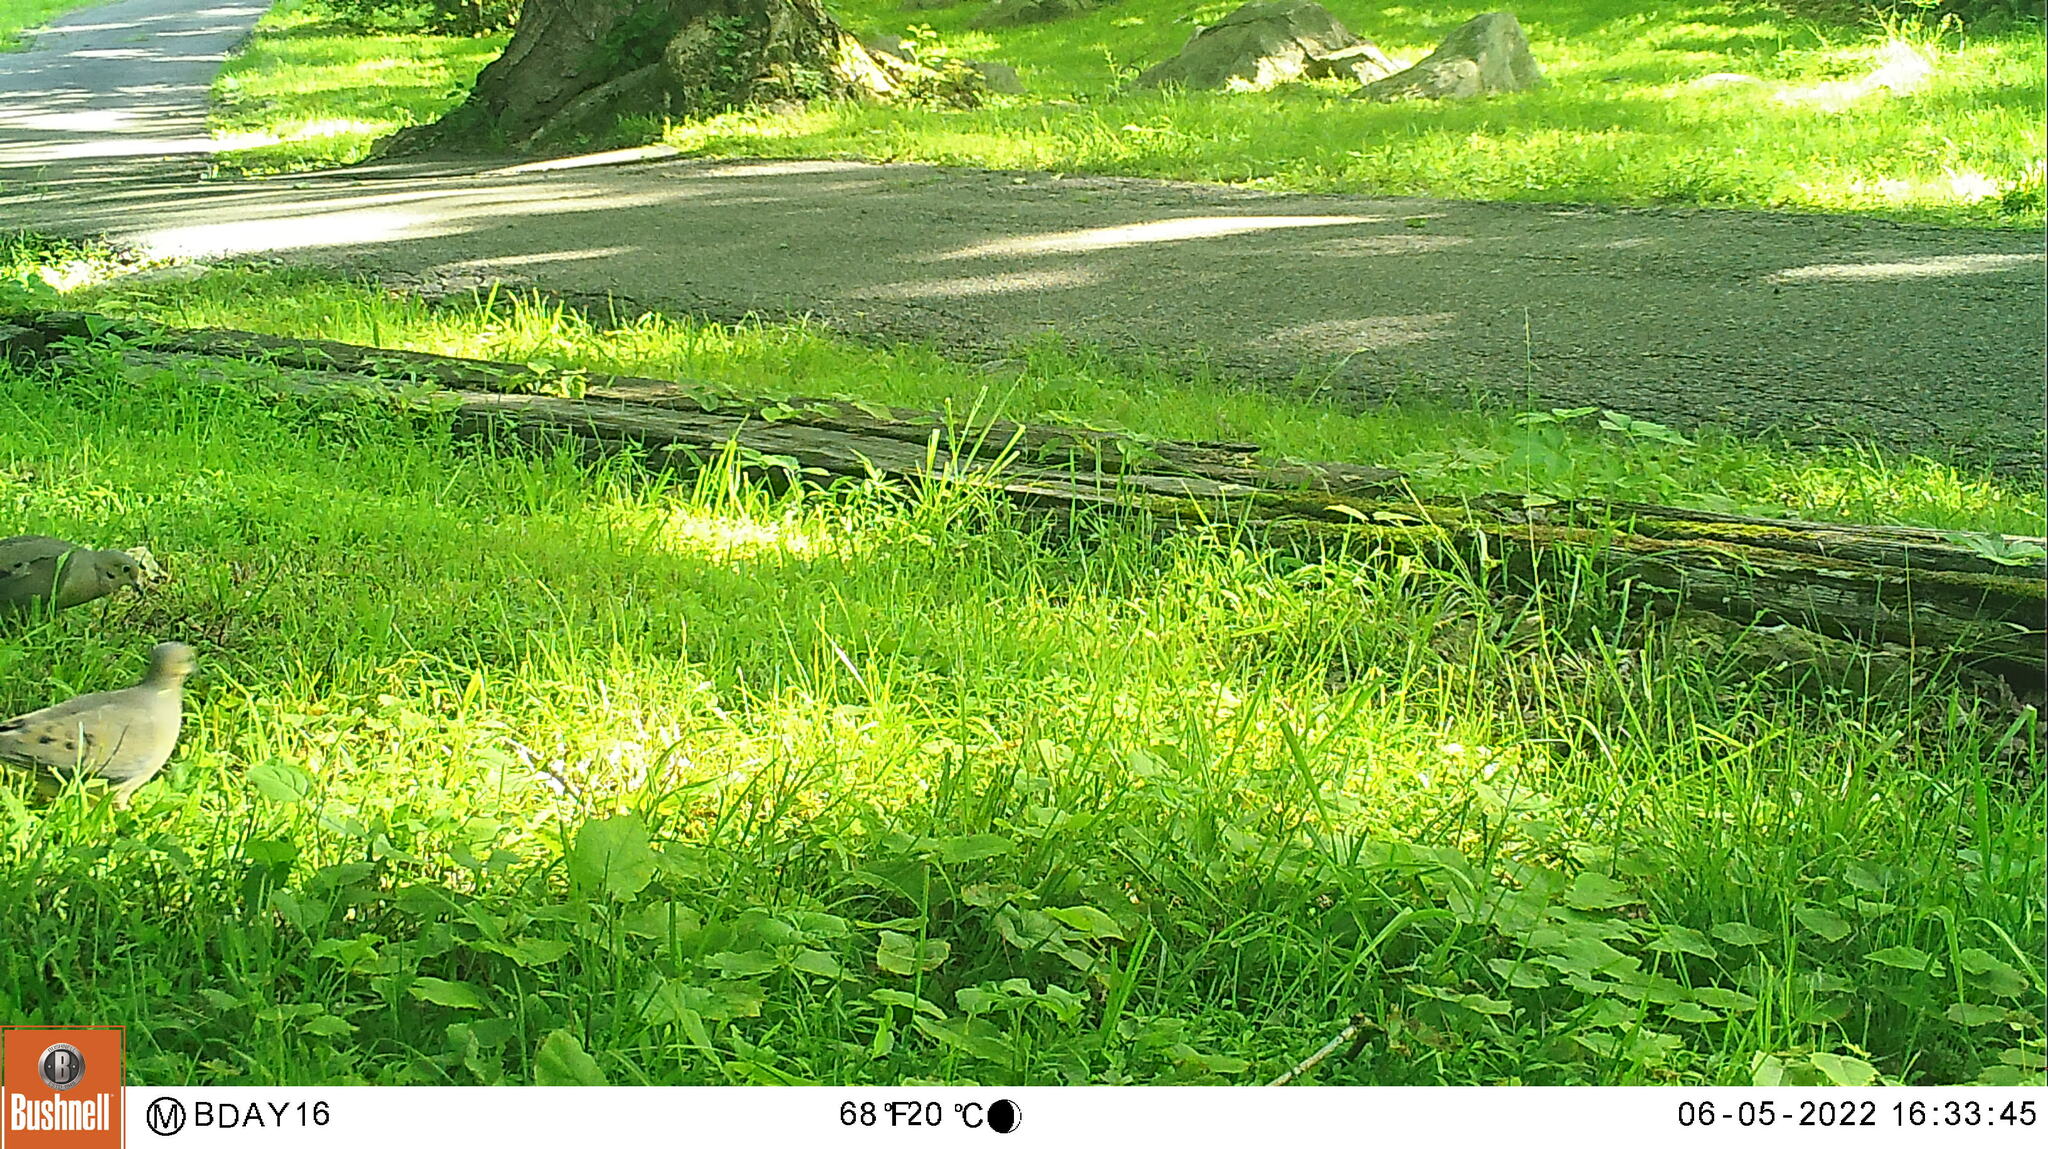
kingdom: Animalia
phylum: Chordata
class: Aves
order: Columbiformes
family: Columbidae
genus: Zenaida
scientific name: Zenaida macroura
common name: Mourning dove
